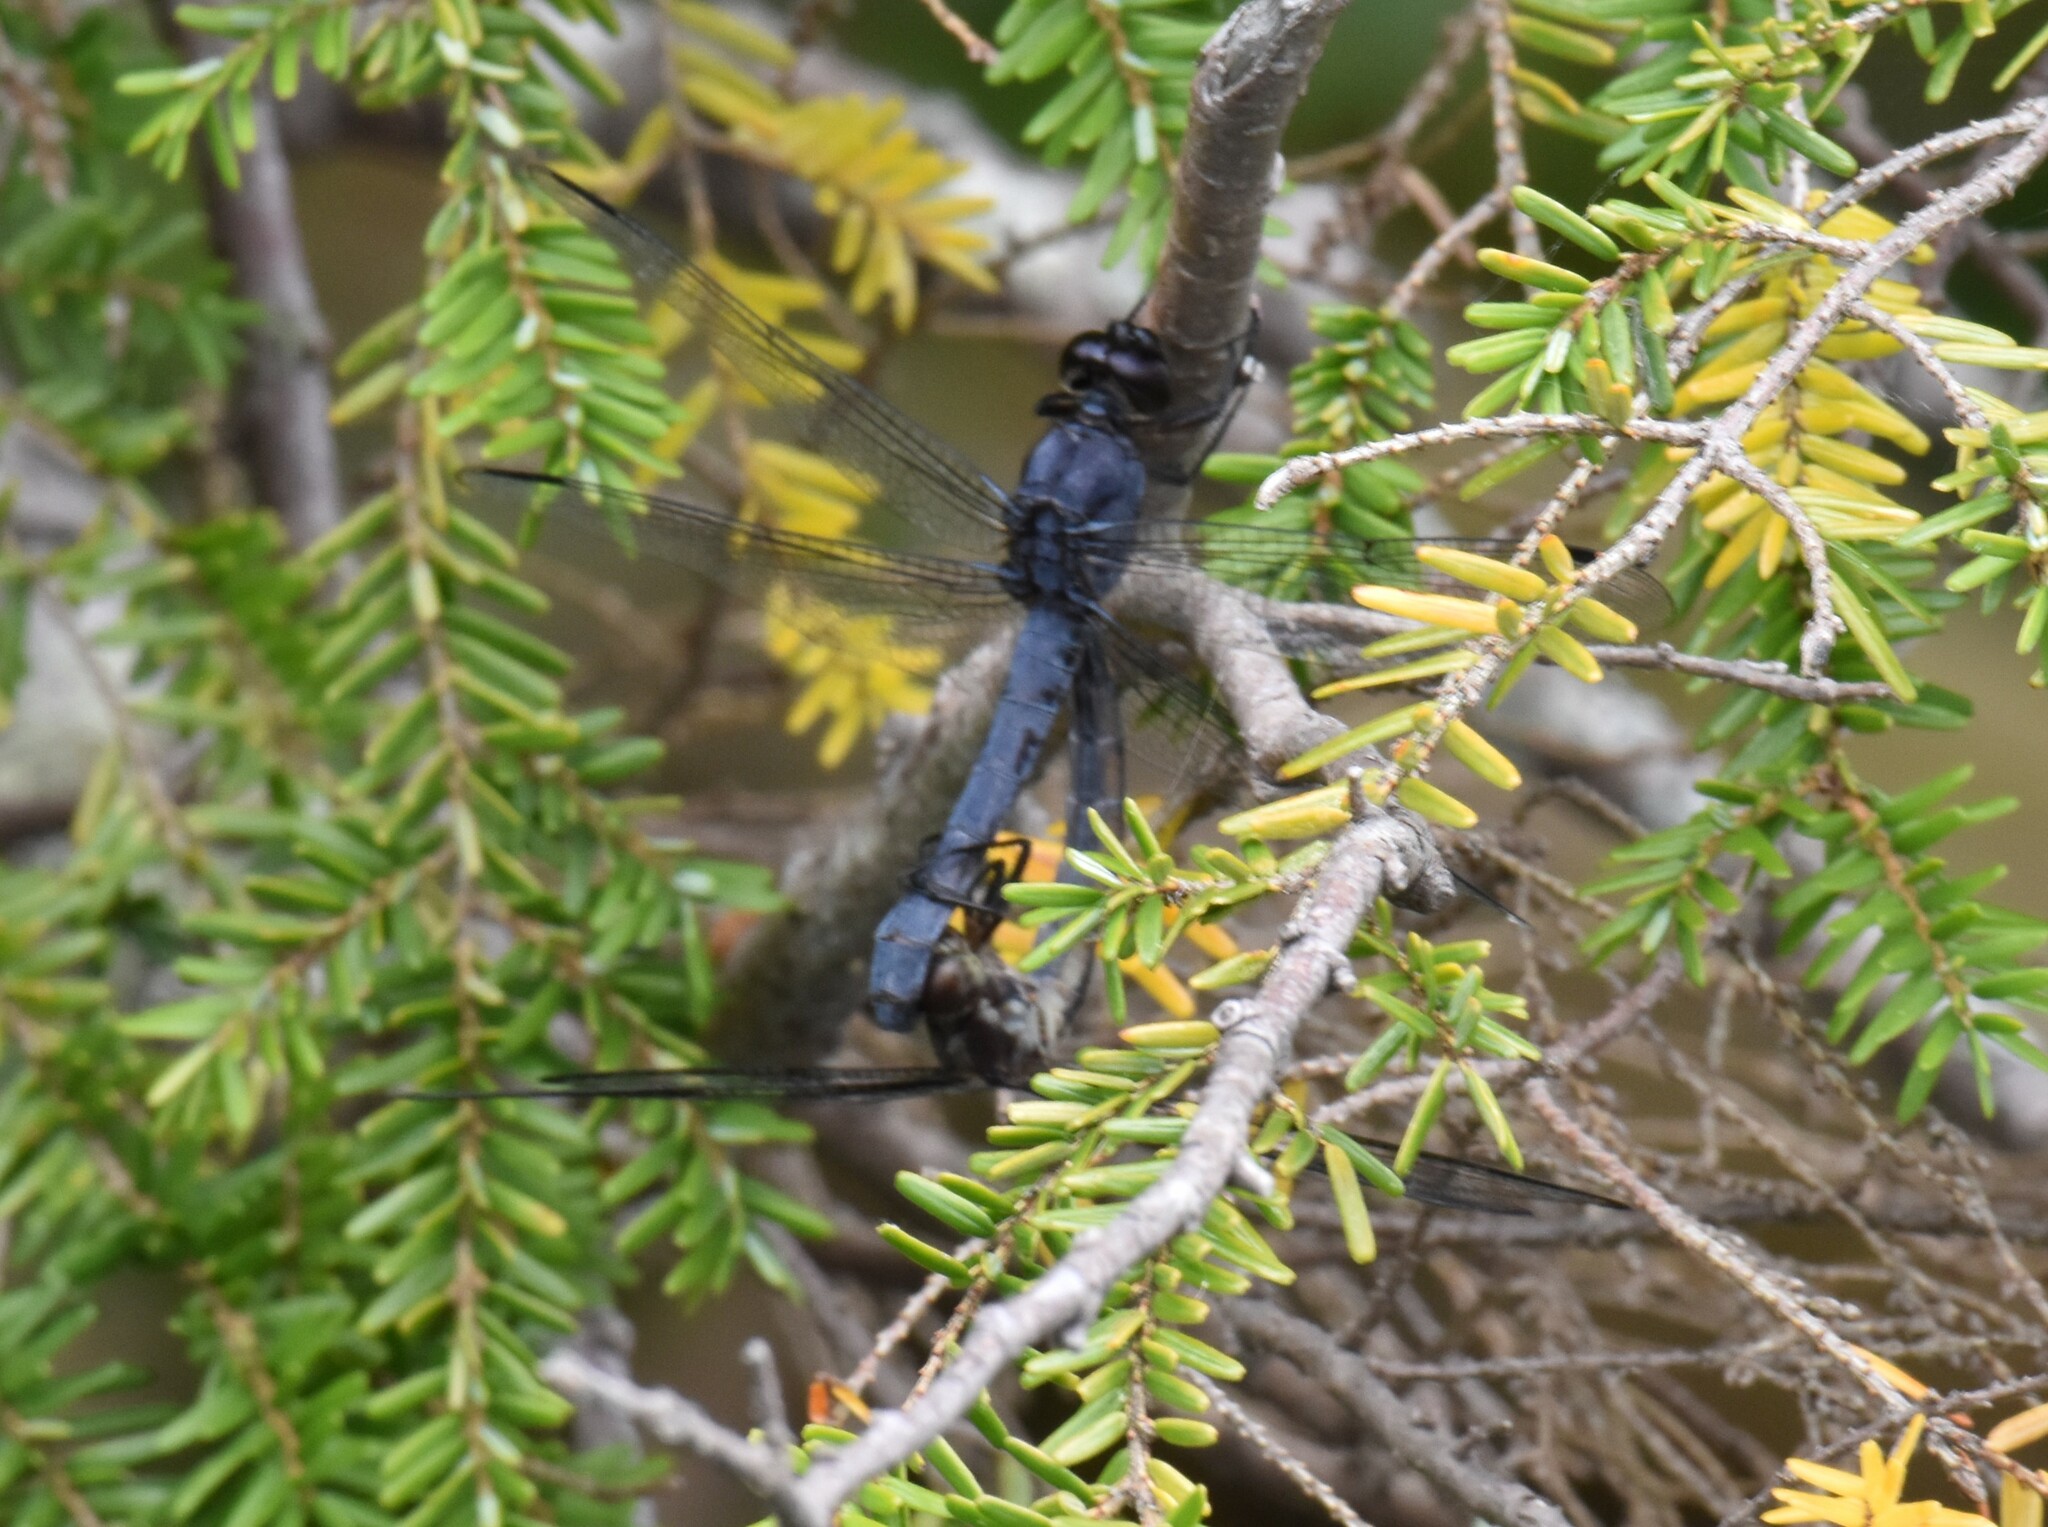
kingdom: Animalia
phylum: Arthropoda
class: Insecta
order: Odonata
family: Libellulidae
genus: Libellula
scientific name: Libellula incesta
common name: Slaty skimmer
